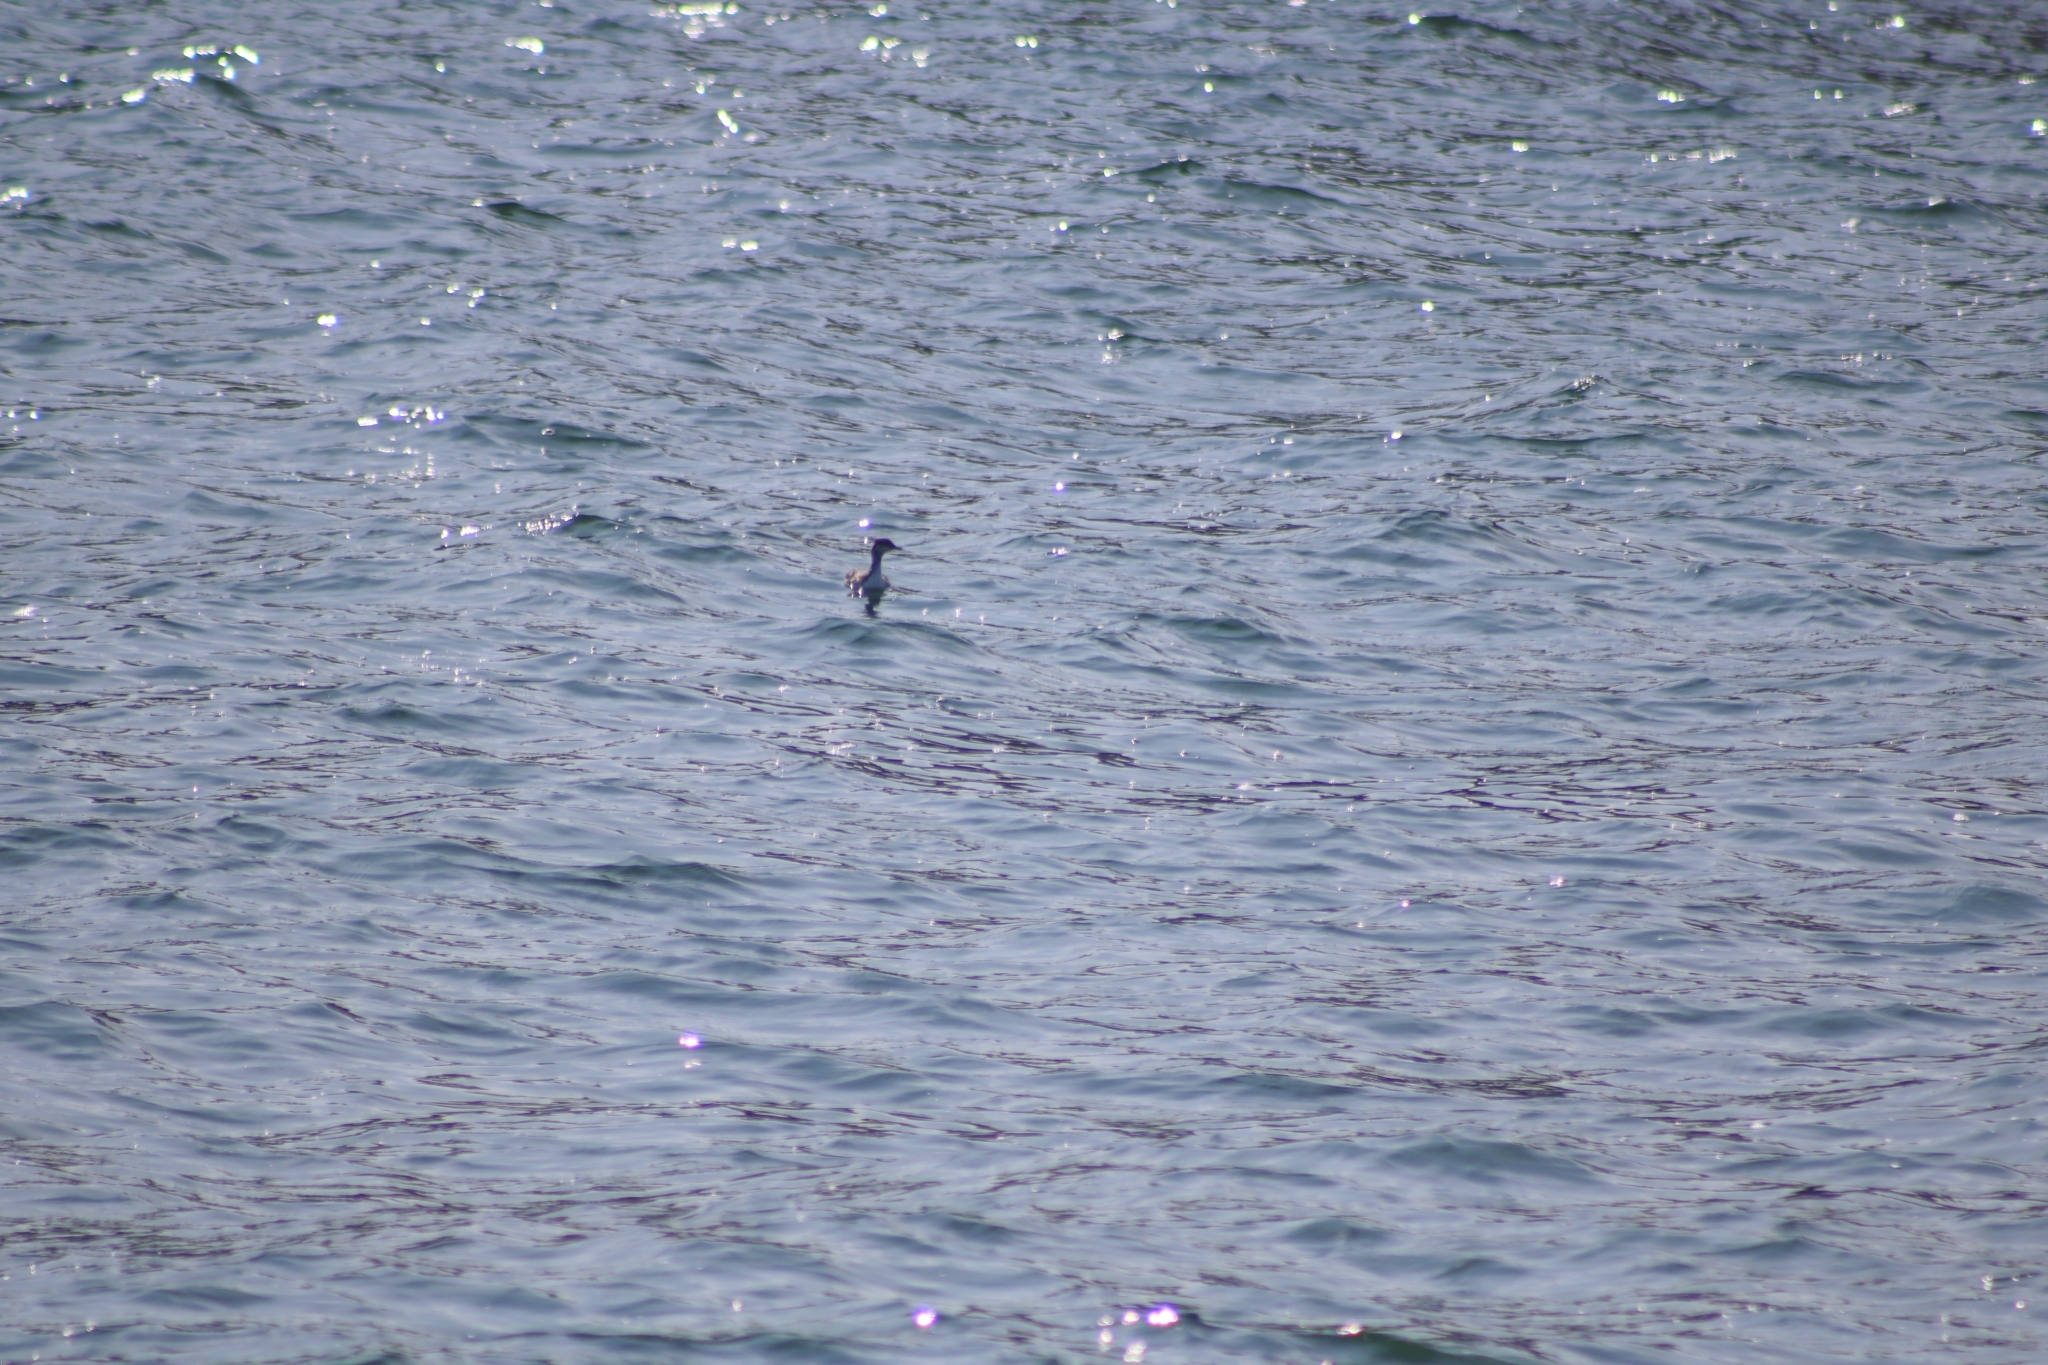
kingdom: Animalia
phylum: Chordata
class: Aves
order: Podicipediformes
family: Podicipedidae
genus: Podiceps
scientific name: Podiceps auritus
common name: Horned grebe
